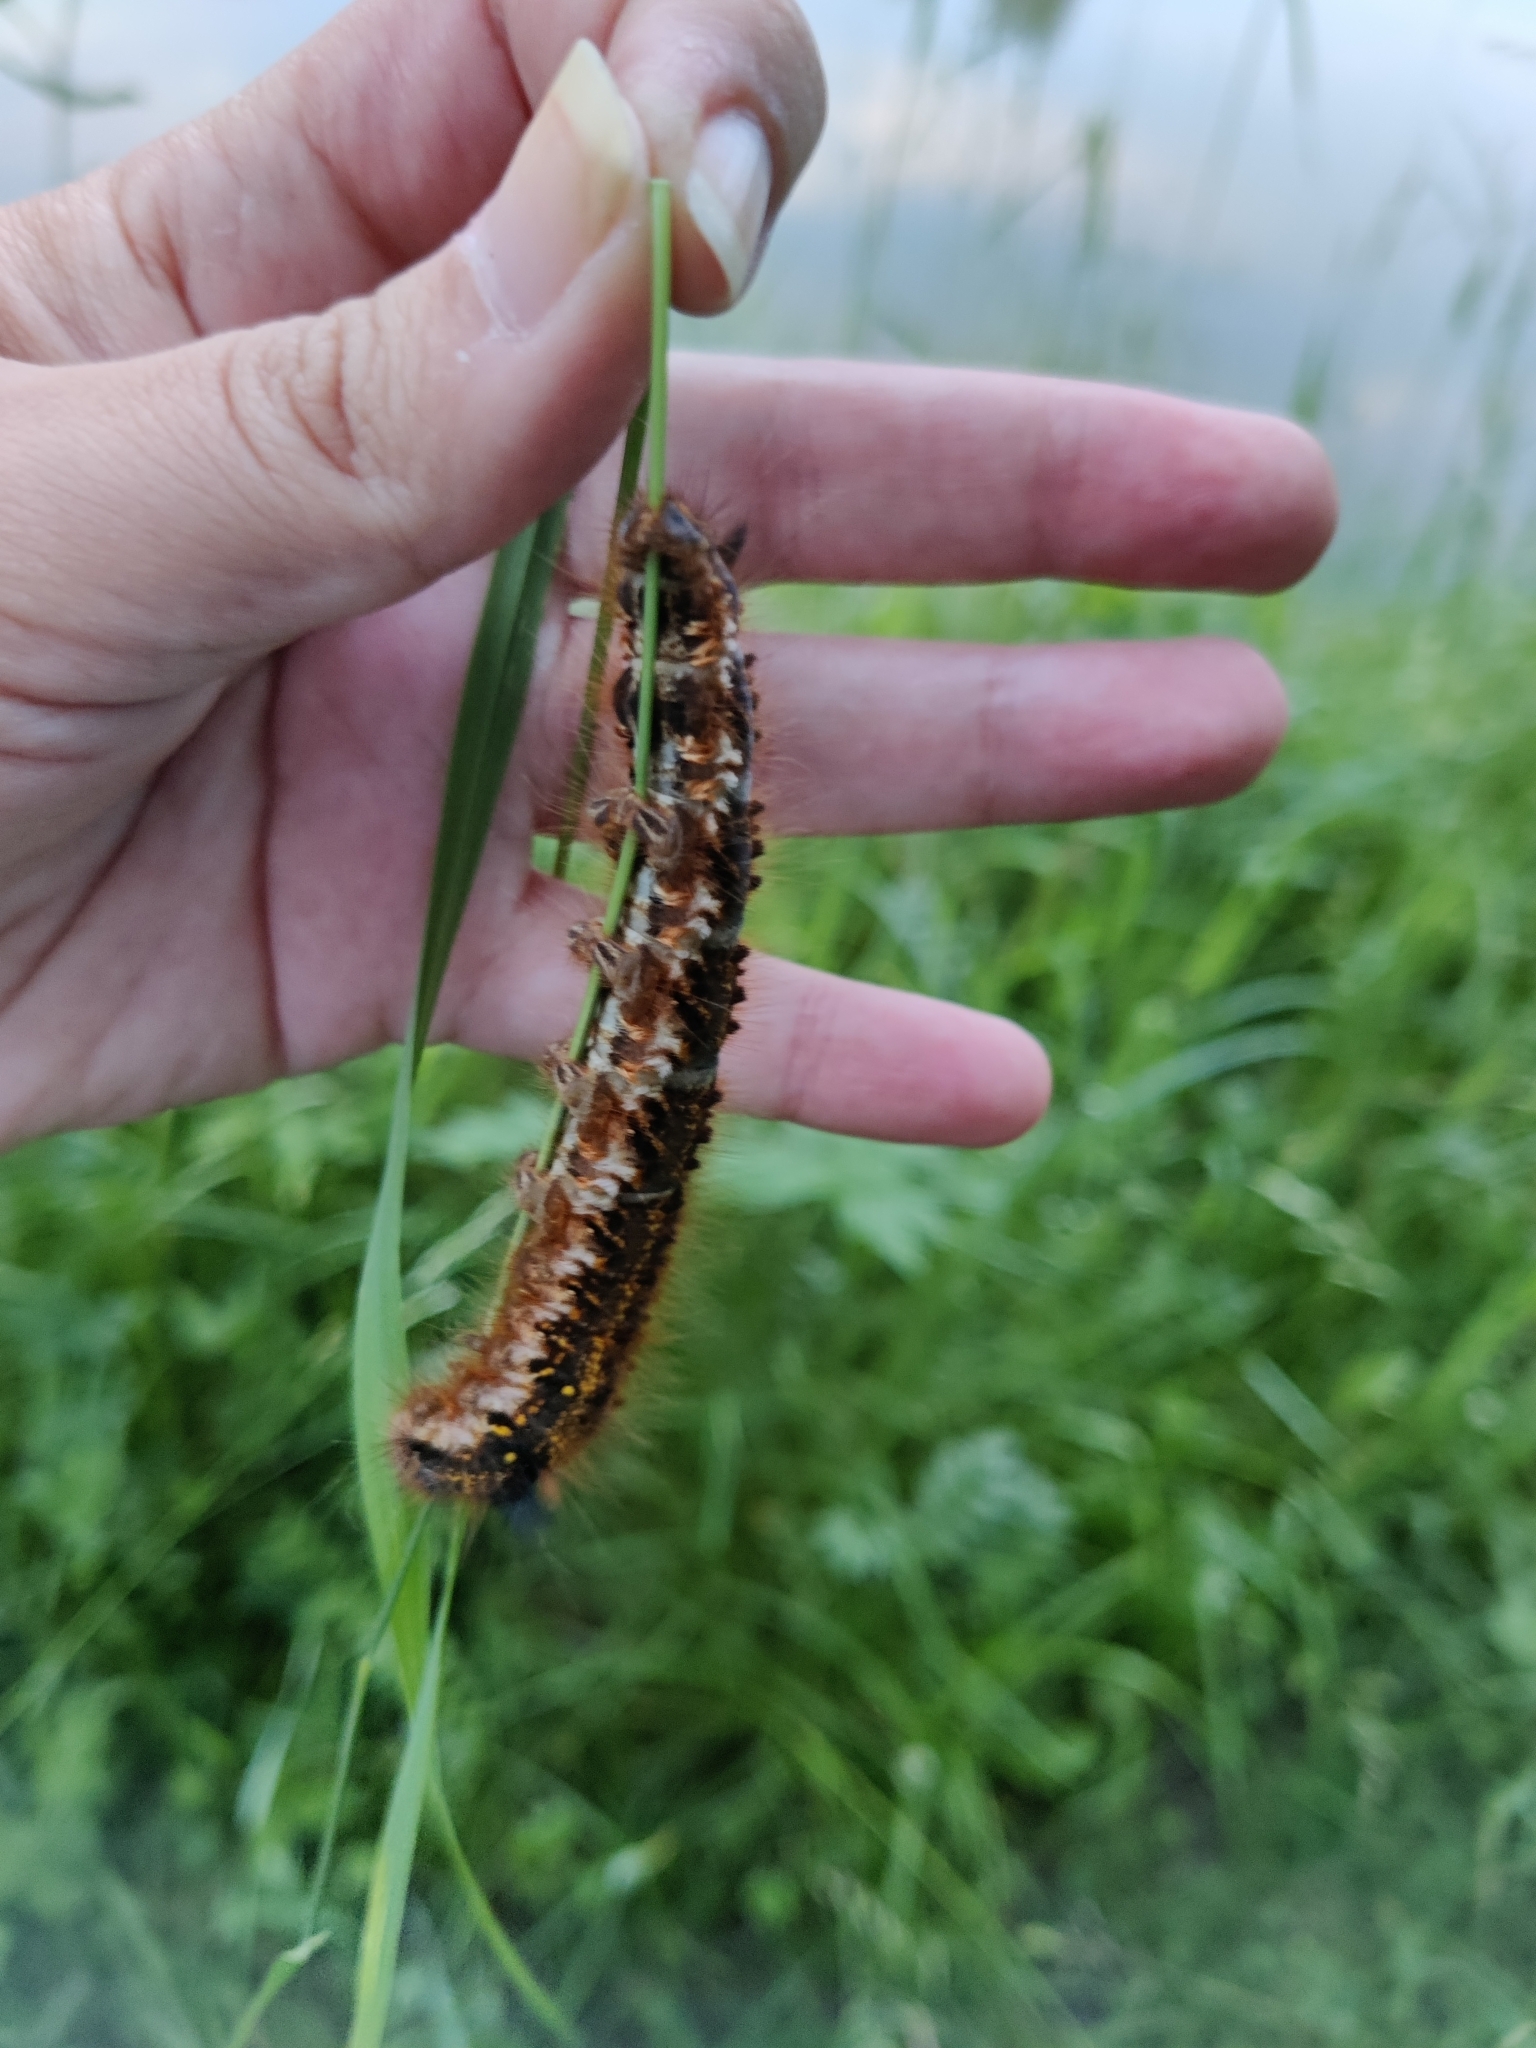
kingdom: Animalia
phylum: Arthropoda
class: Insecta
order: Lepidoptera
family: Lasiocampidae
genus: Euthrix
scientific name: Euthrix potatoria
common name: Drinker
